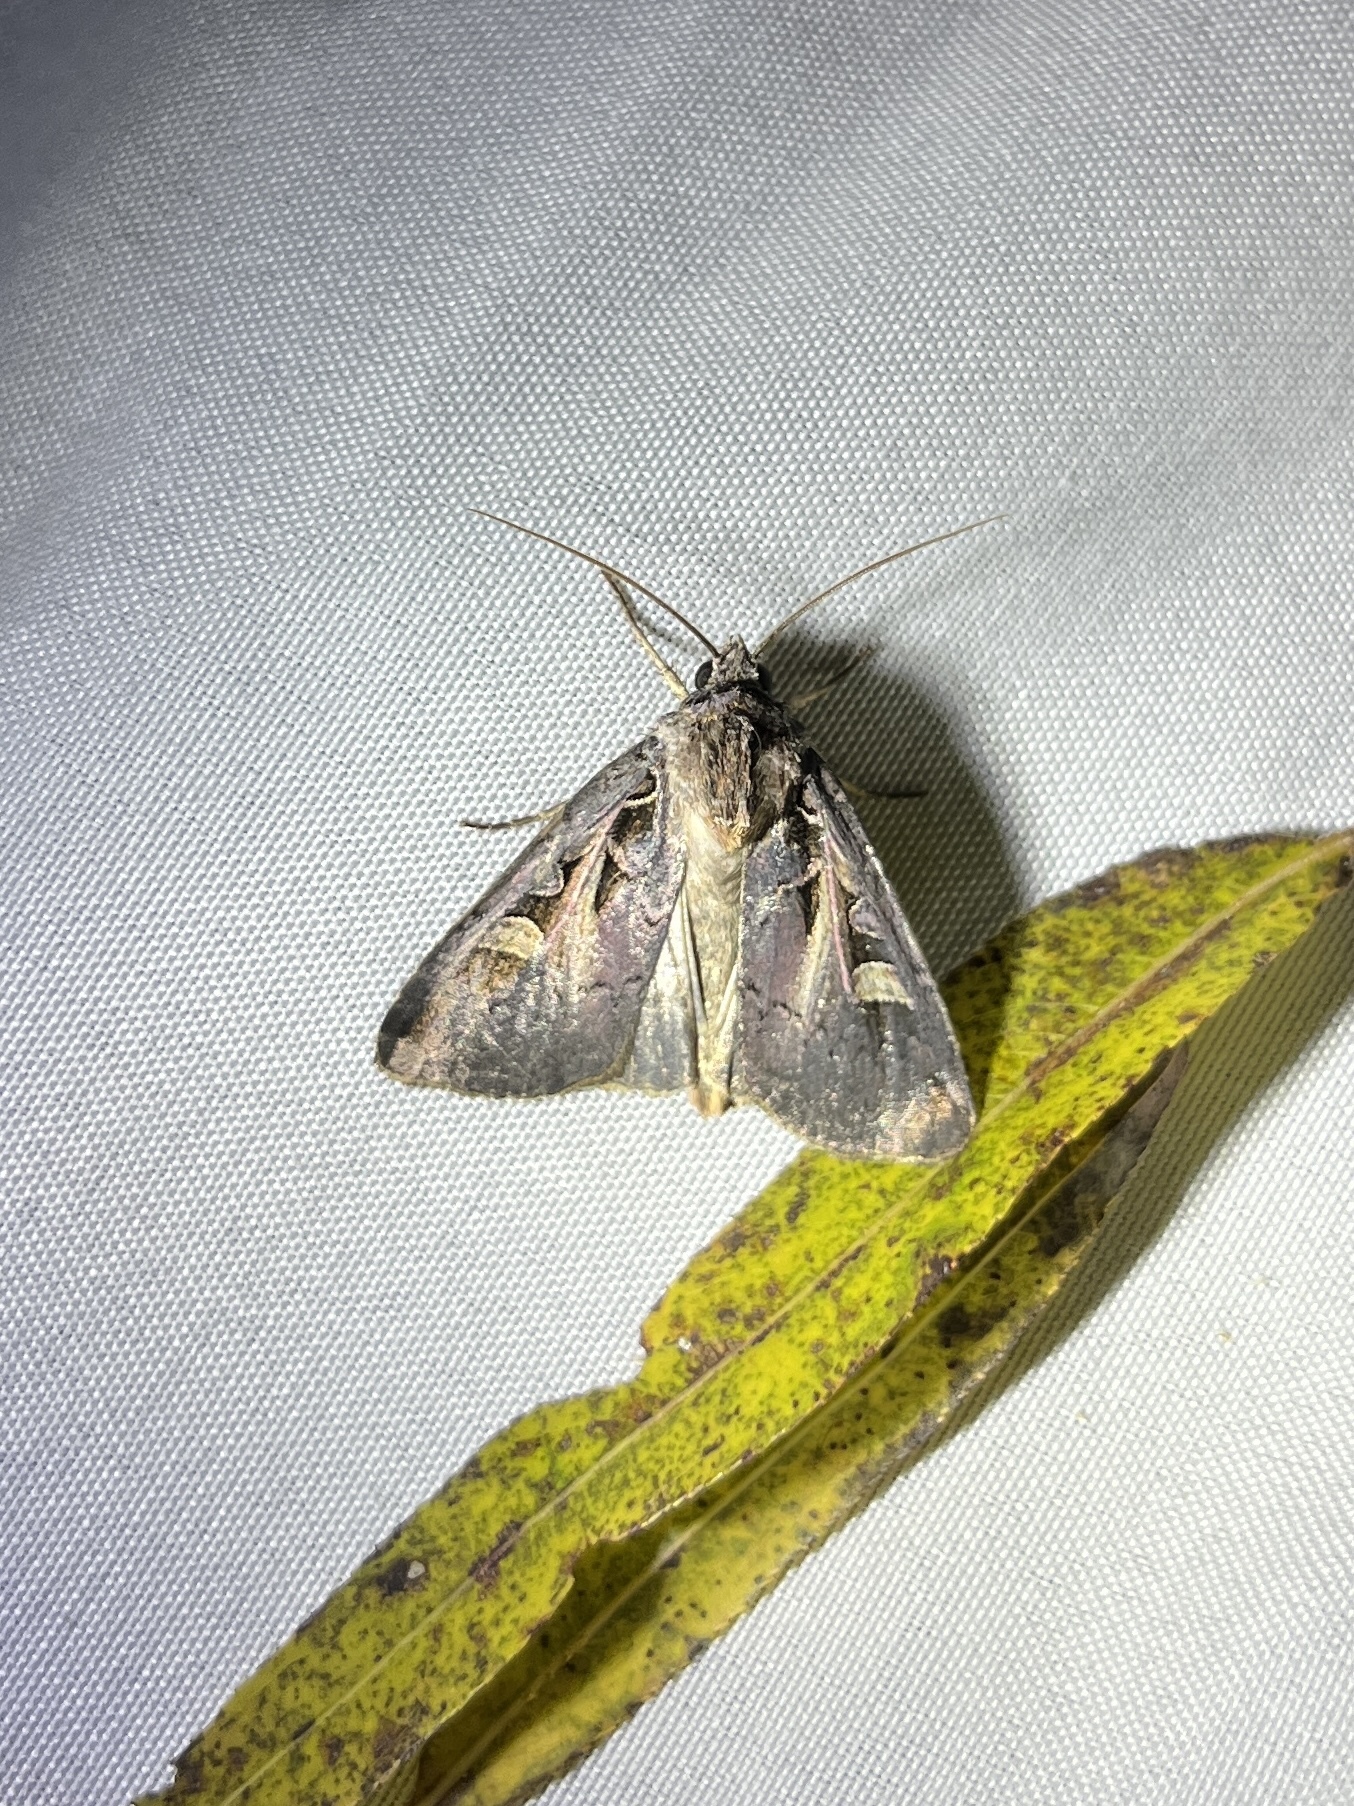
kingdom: Animalia
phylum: Arthropoda
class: Insecta
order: Lepidoptera
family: Noctuidae
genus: Feltia
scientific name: Feltia herilis
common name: Master's dart
